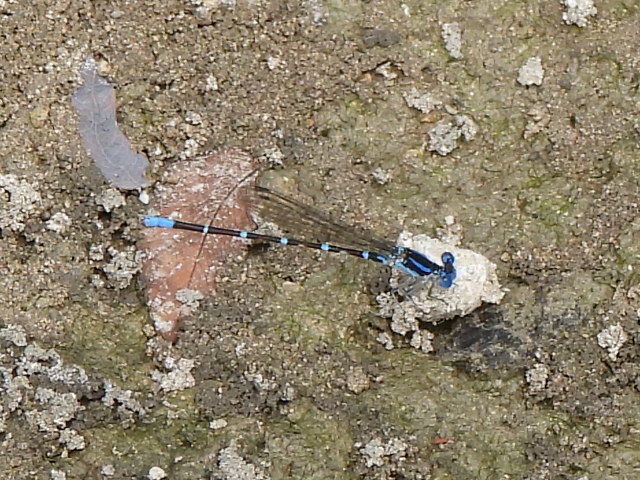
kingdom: Animalia
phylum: Arthropoda
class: Insecta
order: Odonata
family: Coenagrionidae
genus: Argia
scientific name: Argia sedula
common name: Blue-ringed dancer
